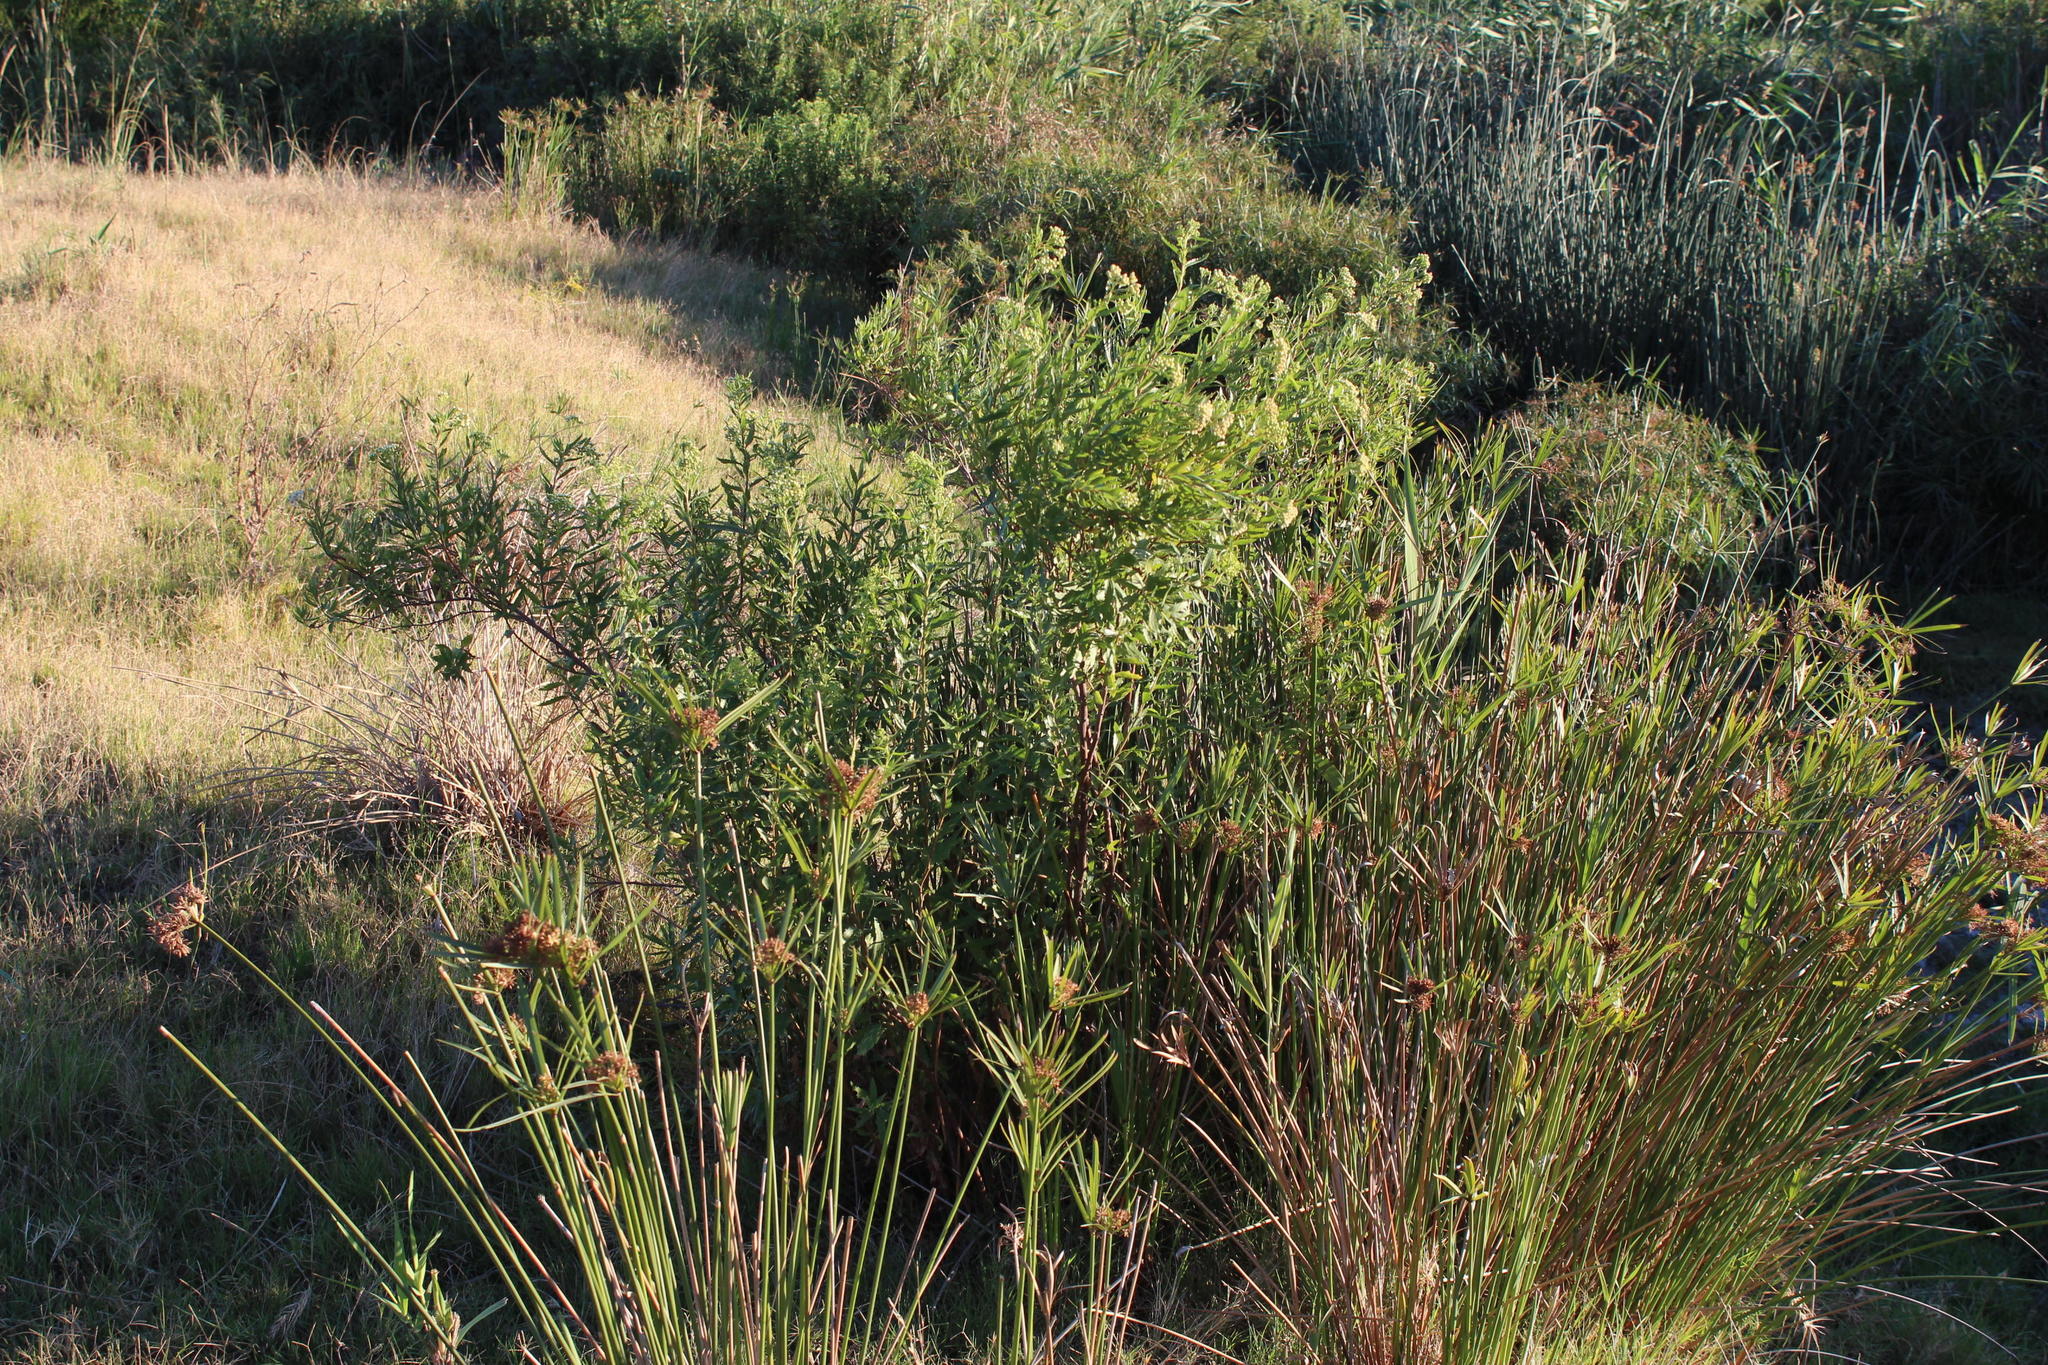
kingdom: Plantae
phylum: Tracheophyta
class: Magnoliopsida
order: Asterales
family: Asteraceae
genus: Nidorella
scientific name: Nidorella ivifolia
